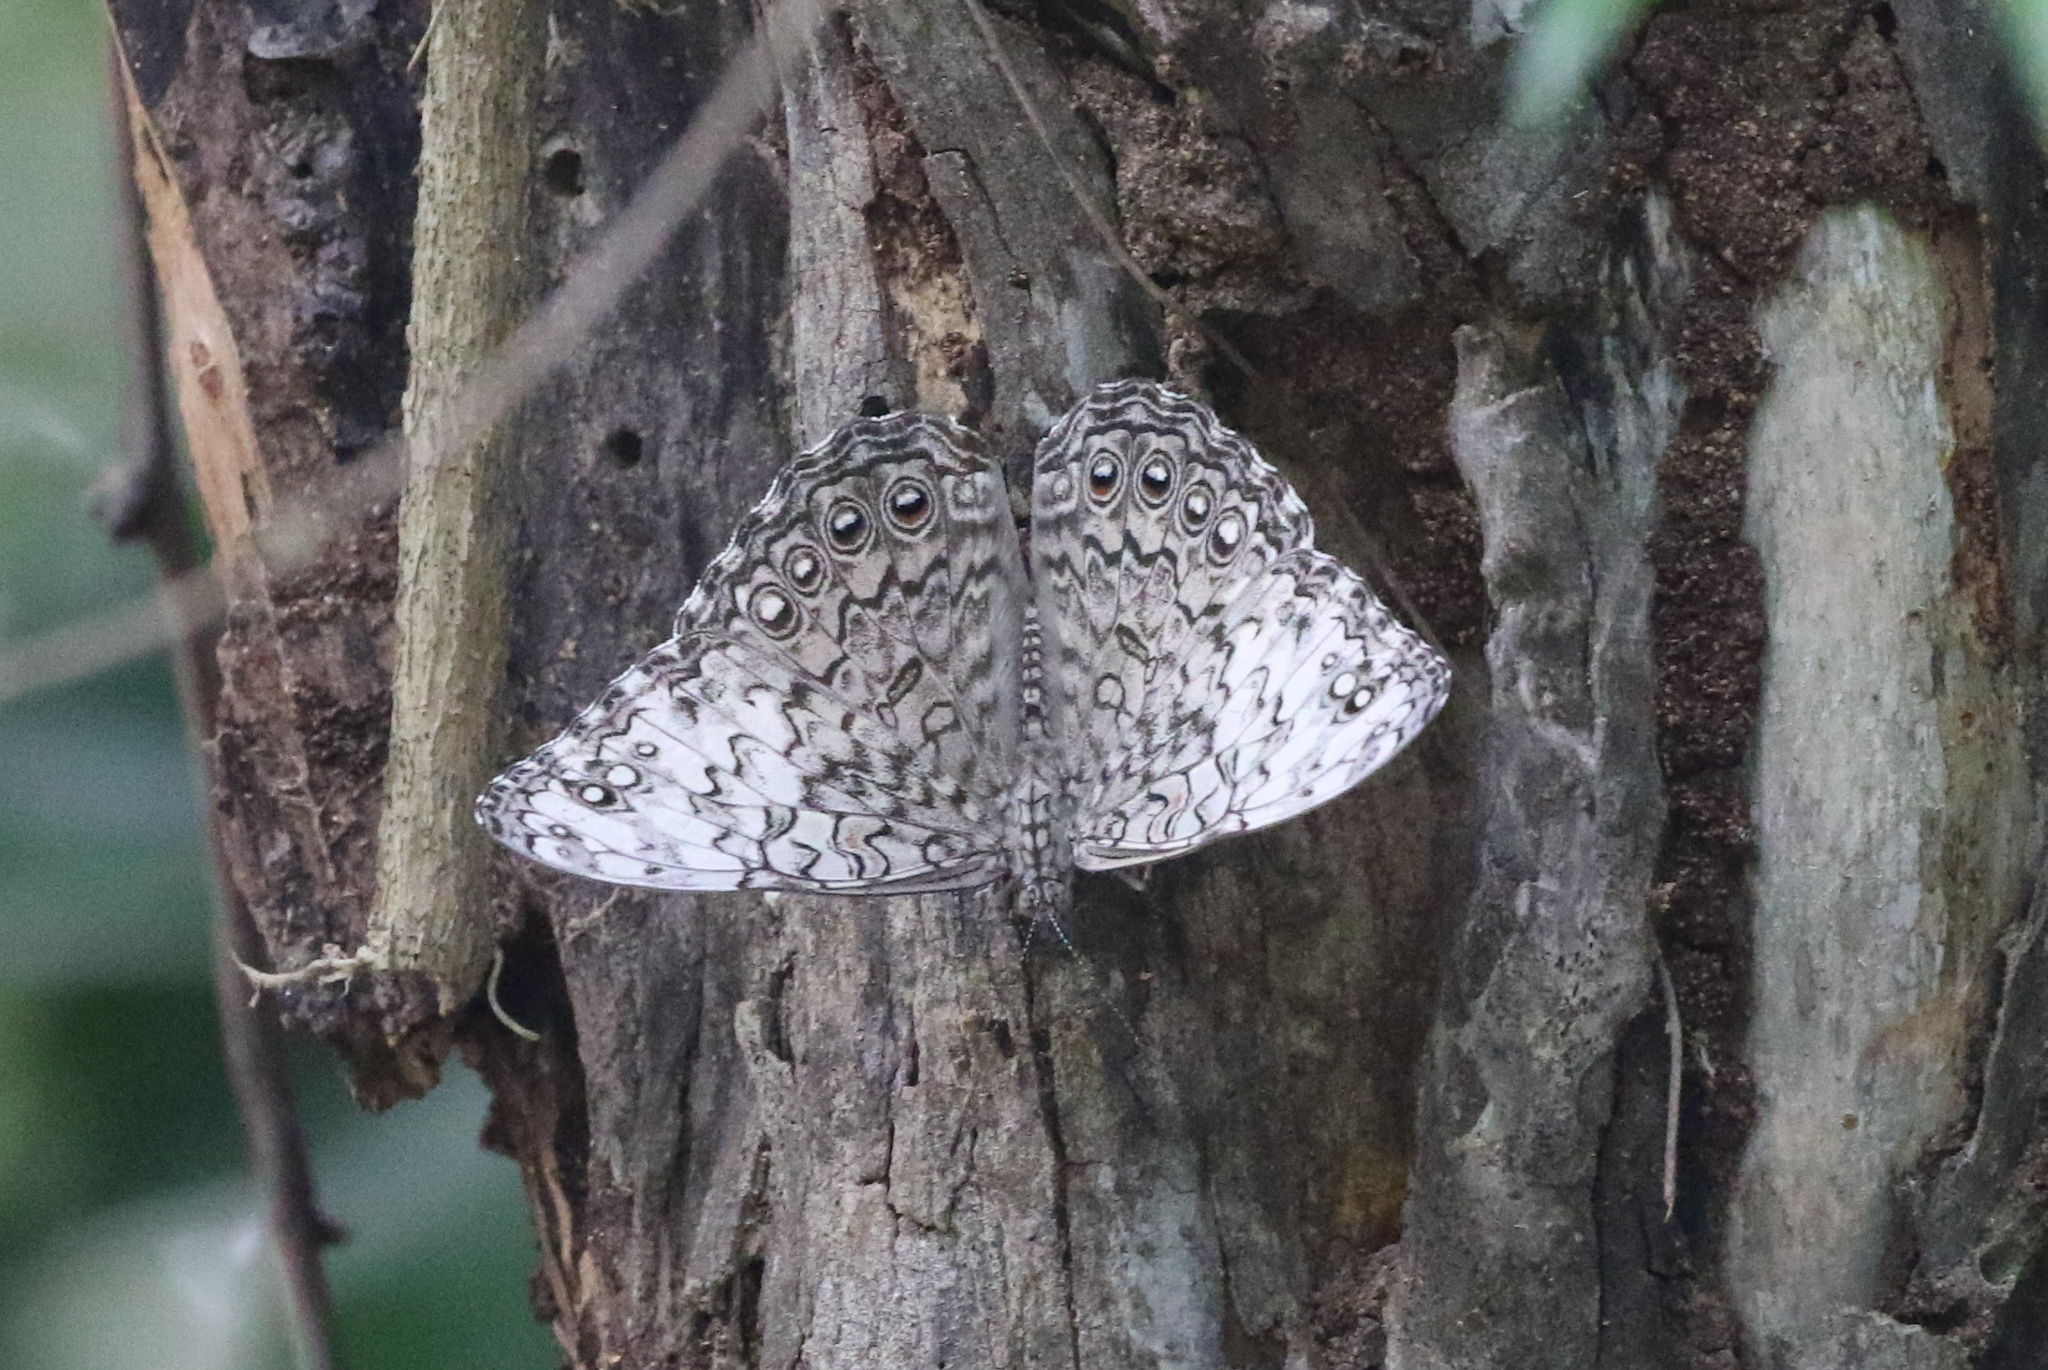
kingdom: Animalia
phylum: Arthropoda
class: Insecta
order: Lepidoptera
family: Nymphalidae
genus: Hamadryas
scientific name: Hamadryas februa
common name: Gray cracker
